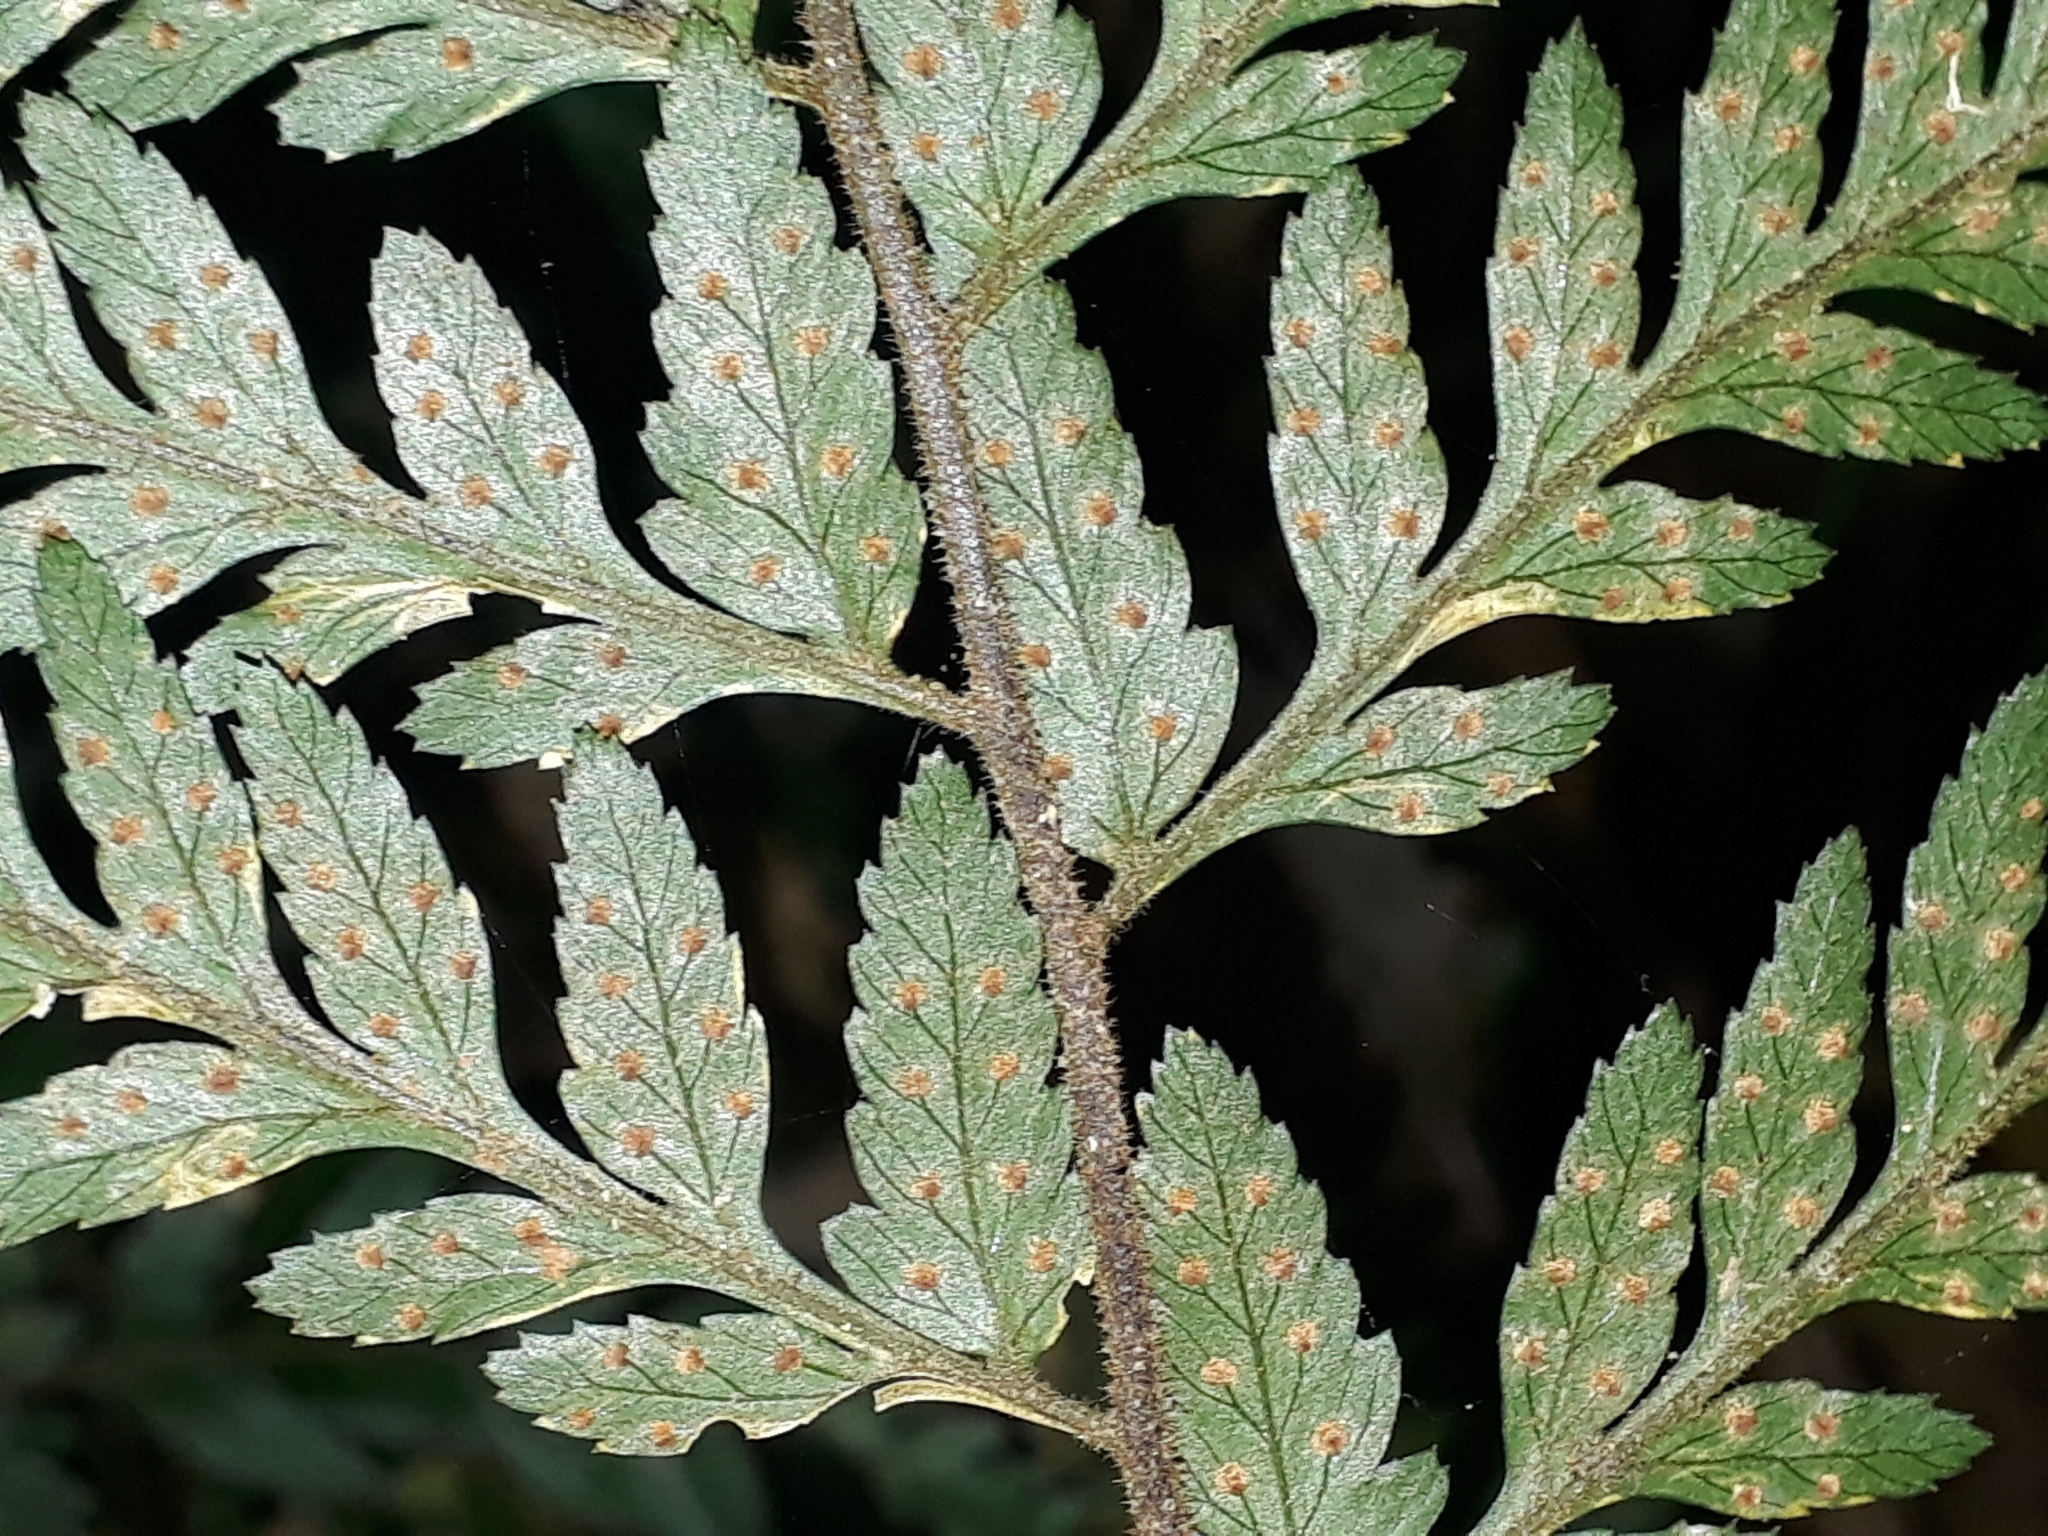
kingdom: Plantae
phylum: Tracheophyta
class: Polypodiopsida
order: Polypodiales
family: Dryopteridaceae
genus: Parapolystichum
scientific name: Parapolystichum acuminatum
